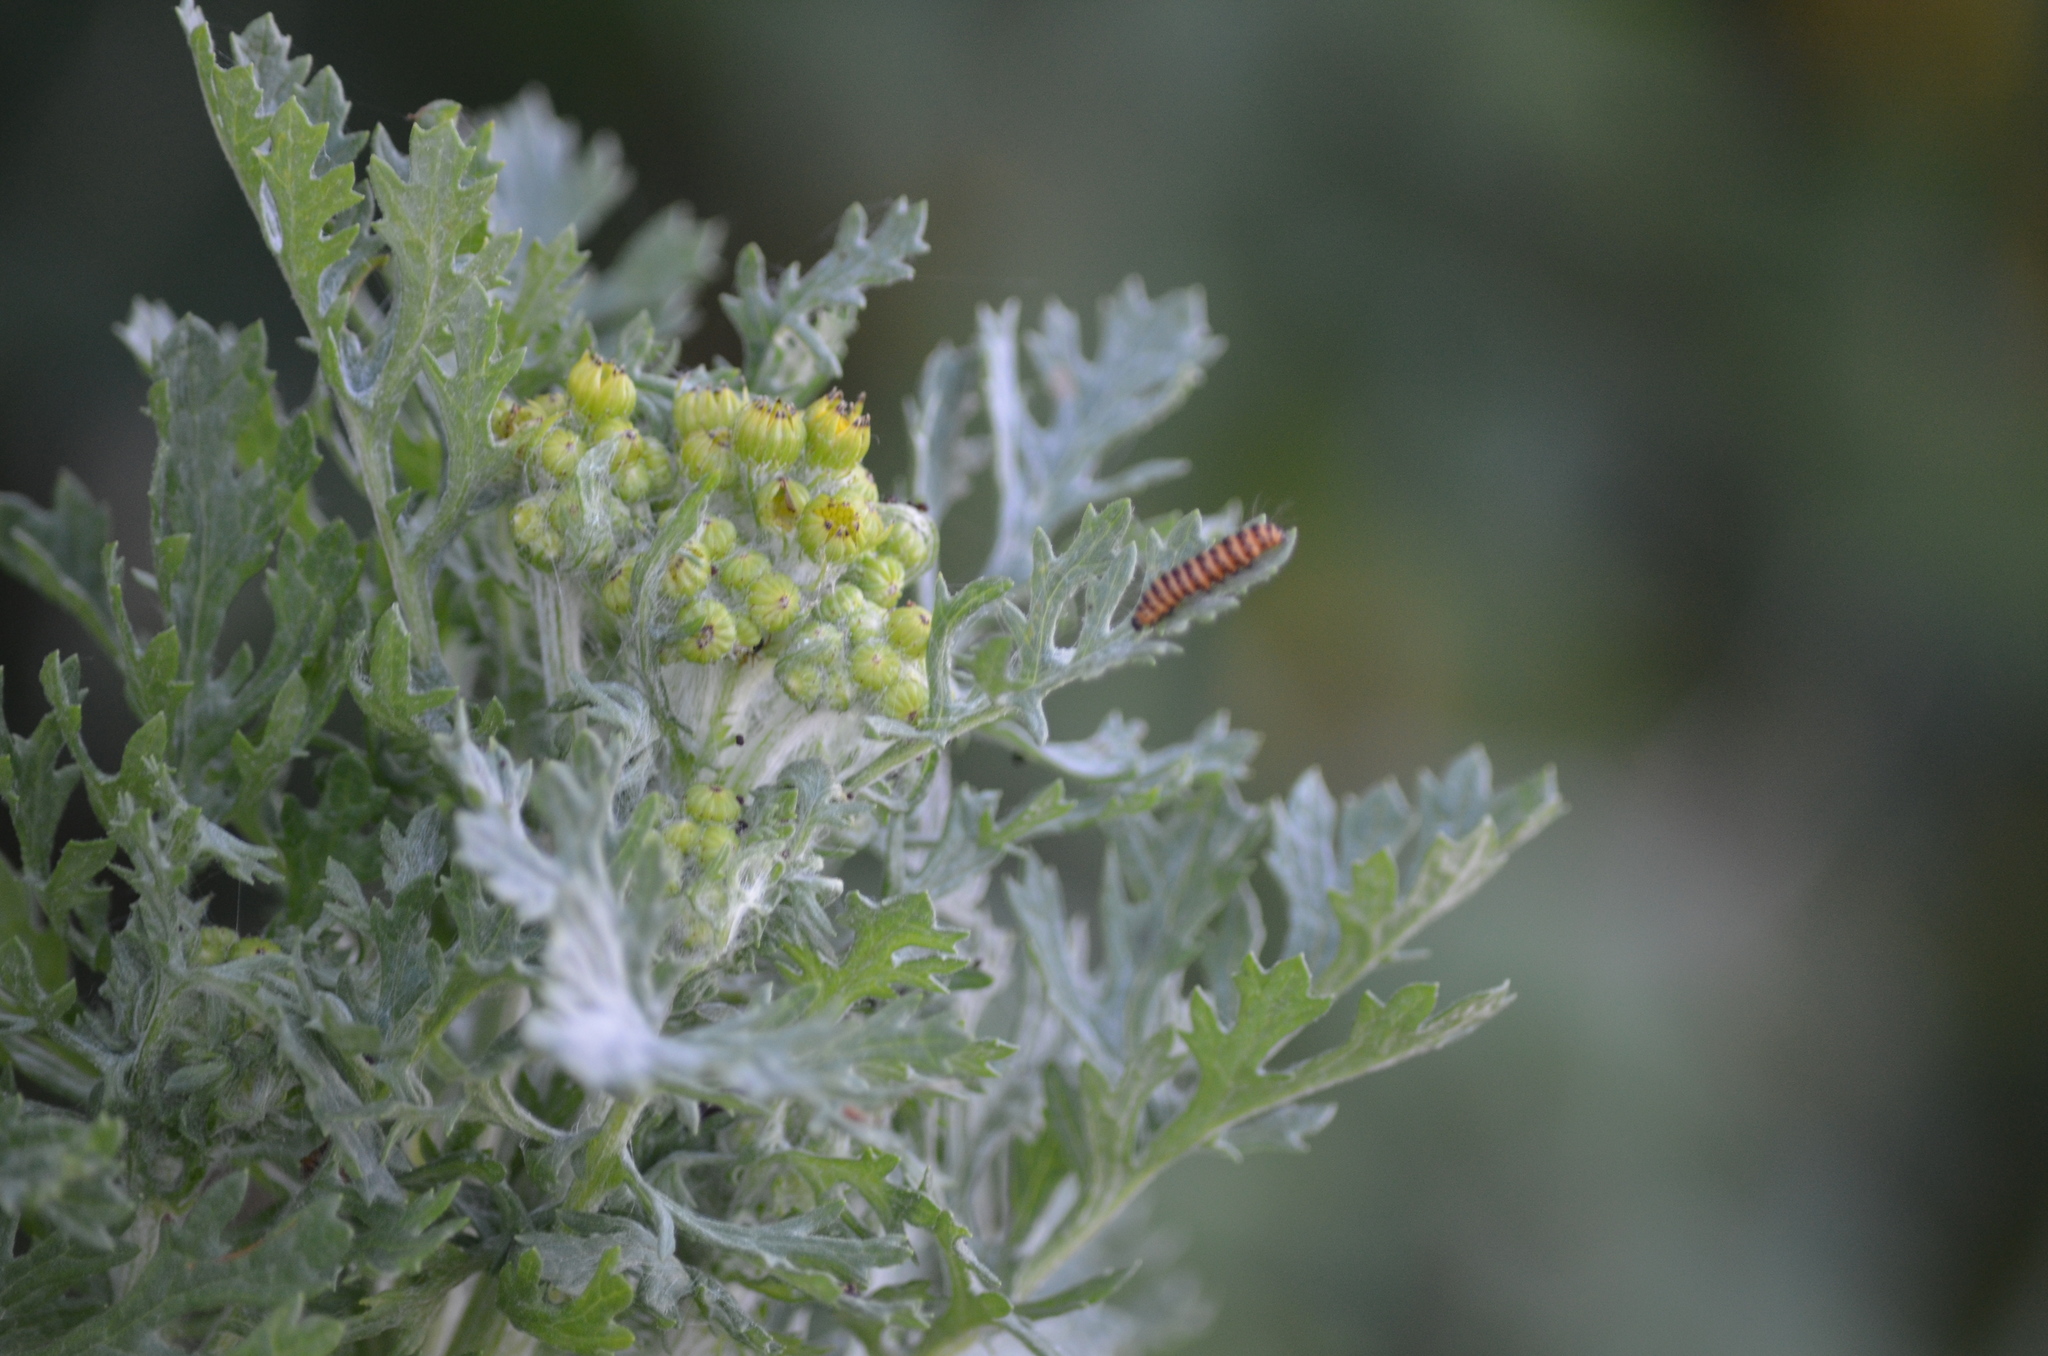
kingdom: Animalia
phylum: Arthropoda
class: Insecta
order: Lepidoptera
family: Erebidae
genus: Tyria
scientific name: Tyria jacobaeae
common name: Cinnabar
